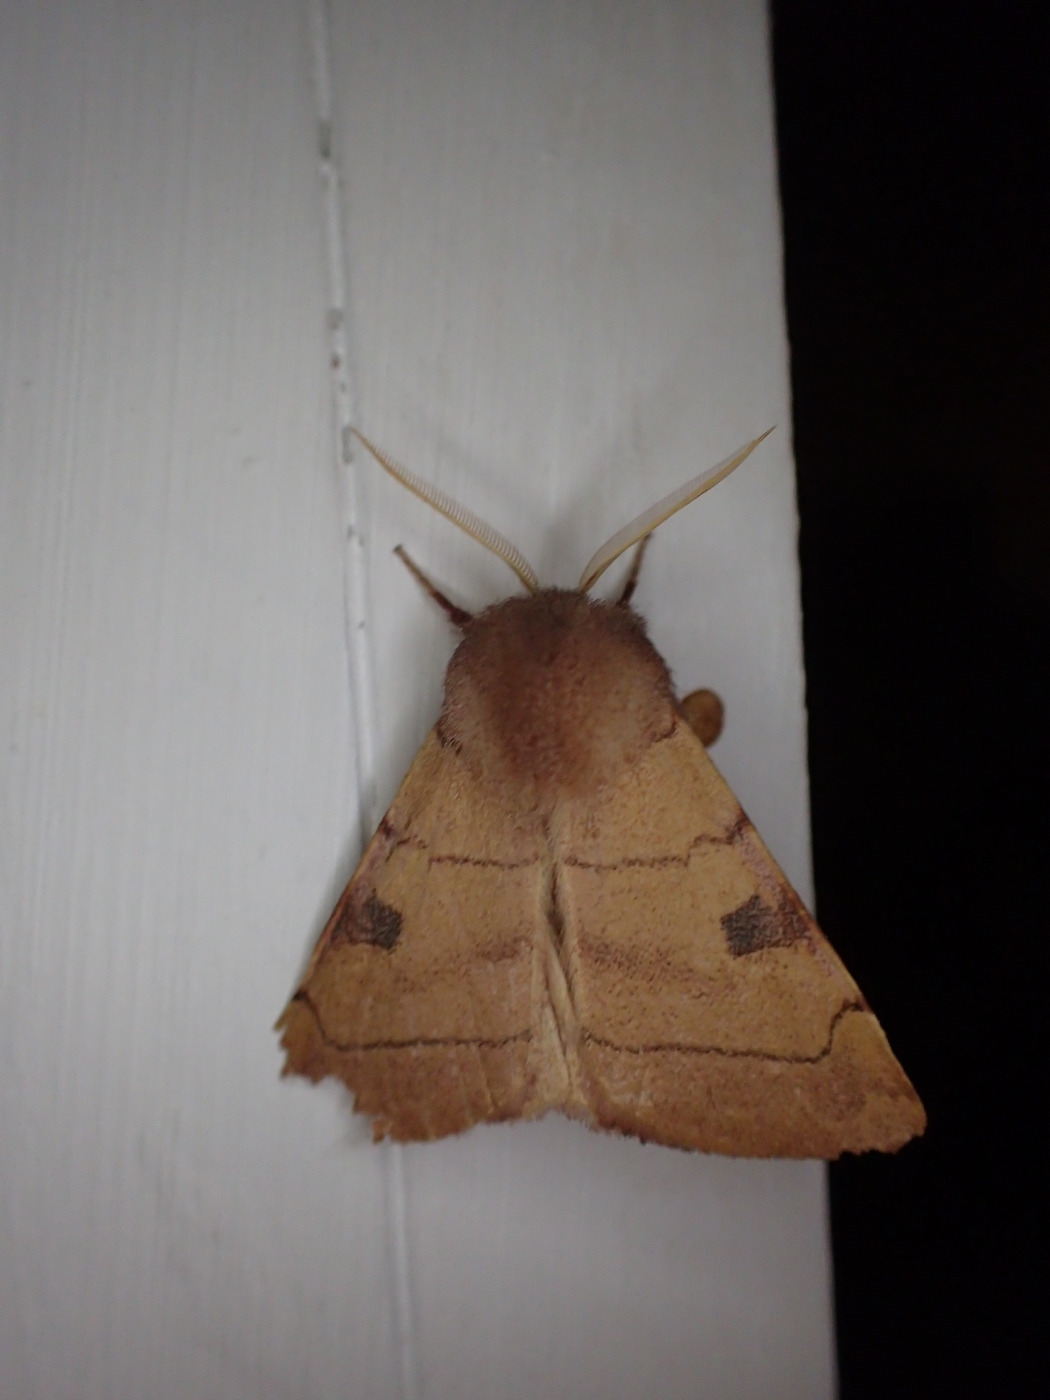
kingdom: Animalia
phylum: Arthropoda
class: Insecta
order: Lepidoptera
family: Noctuidae
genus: Choephora
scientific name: Choephora fungorum
